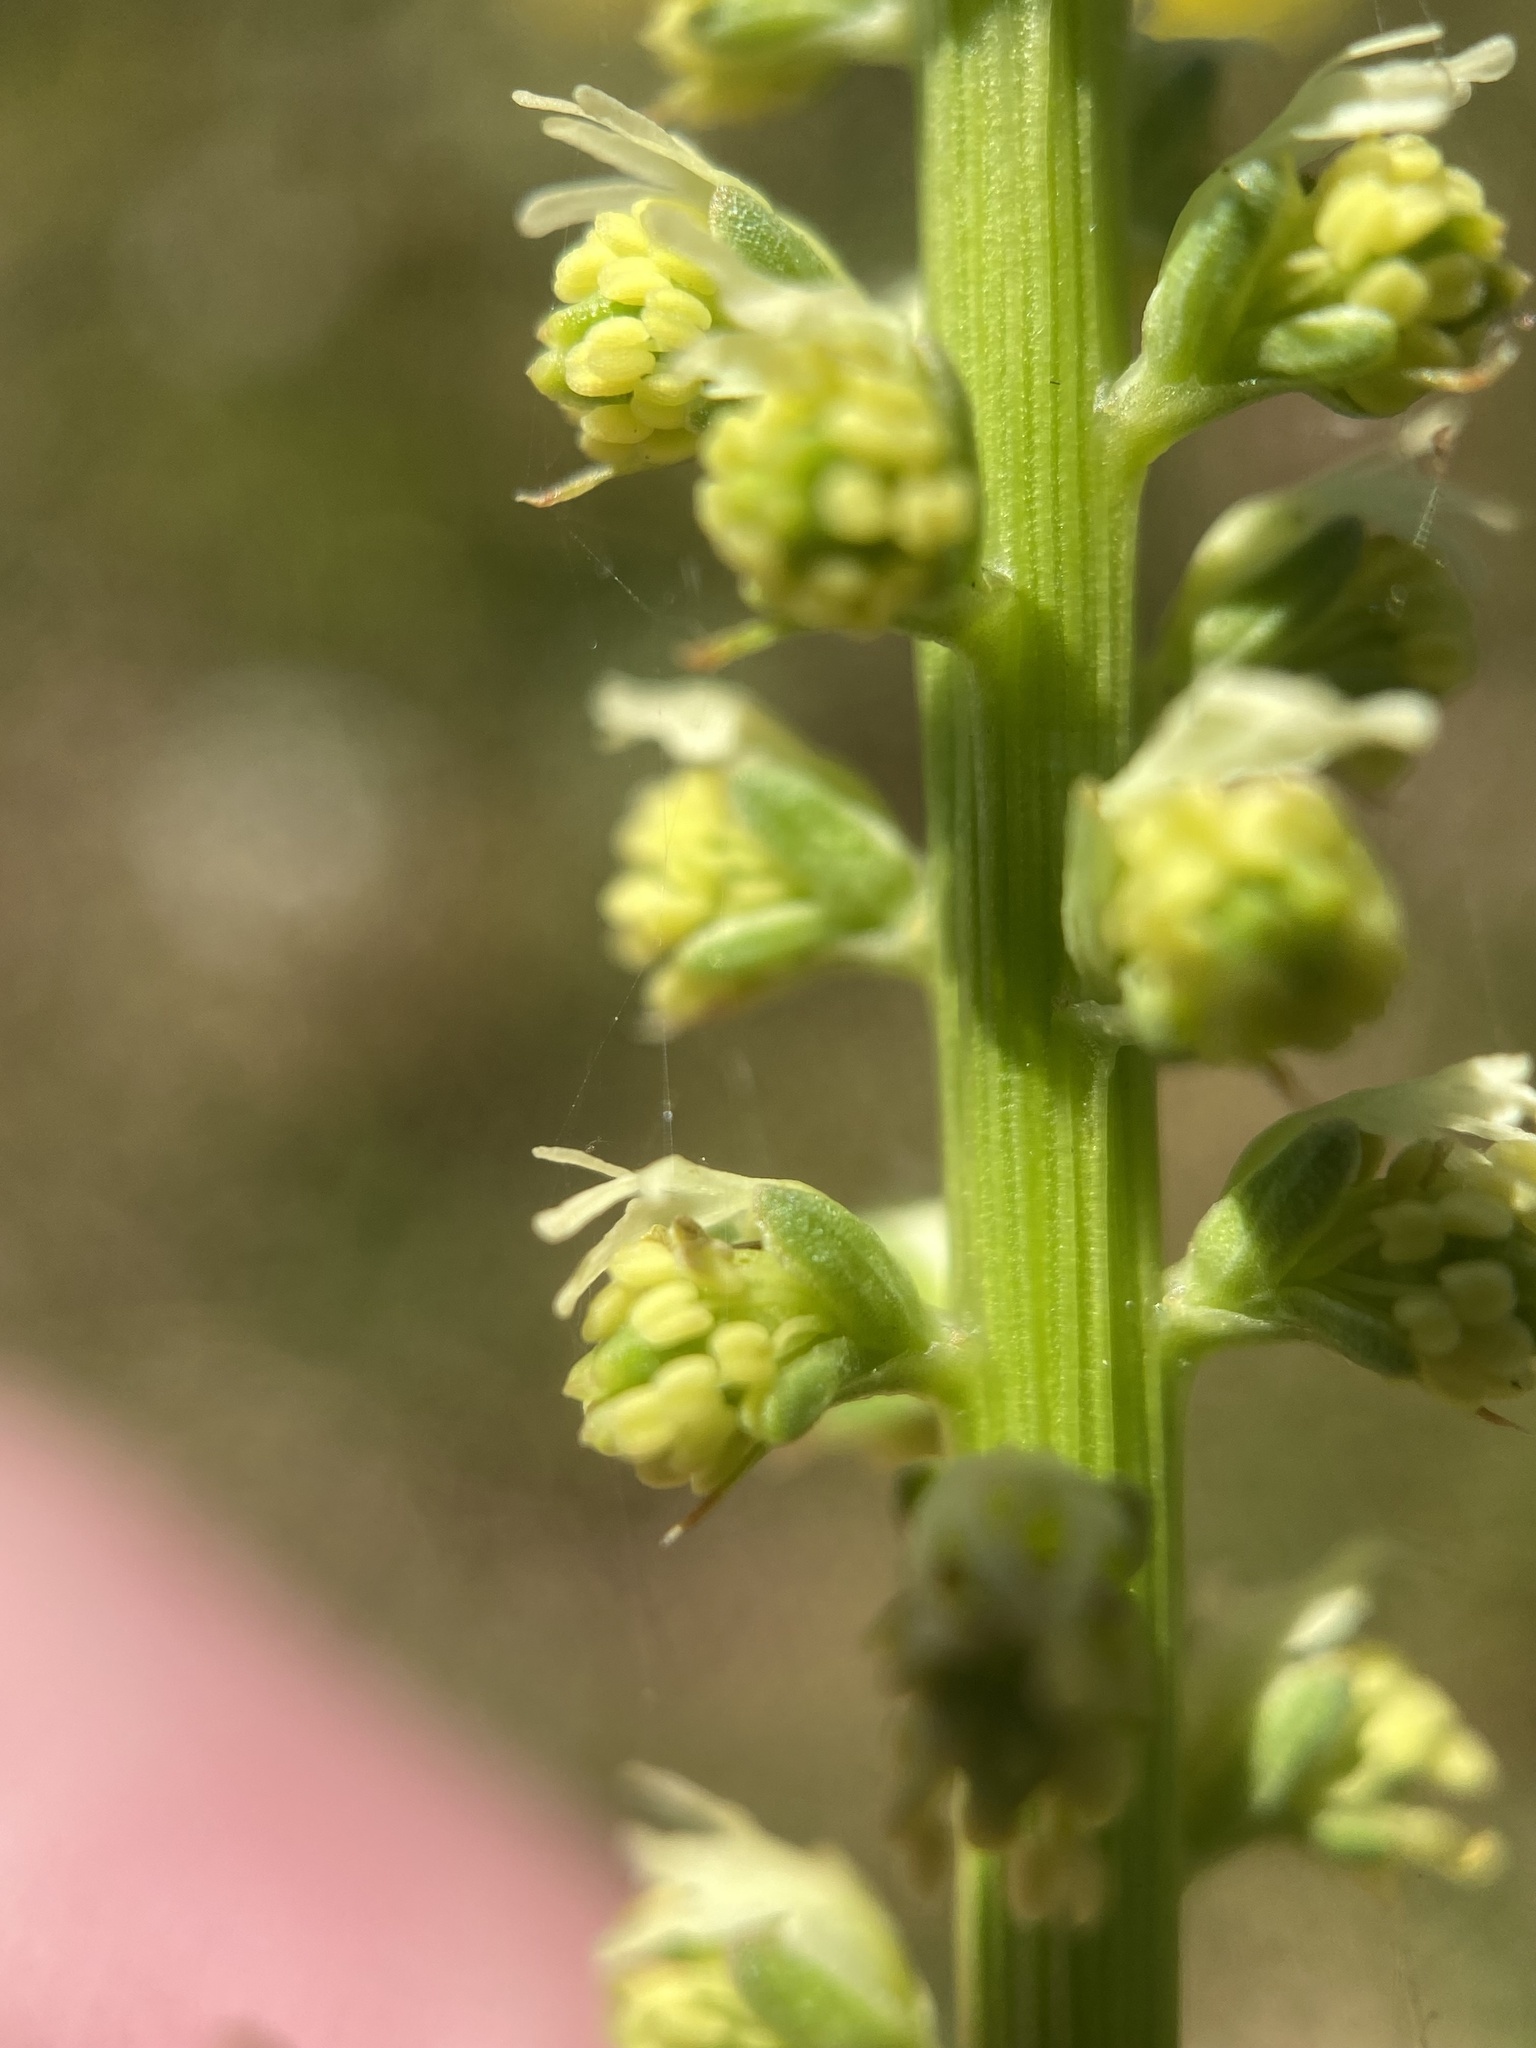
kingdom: Plantae
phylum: Tracheophyta
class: Magnoliopsida
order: Brassicales
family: Resedaceae
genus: Reseda
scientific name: Reseda luteola
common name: Weld
